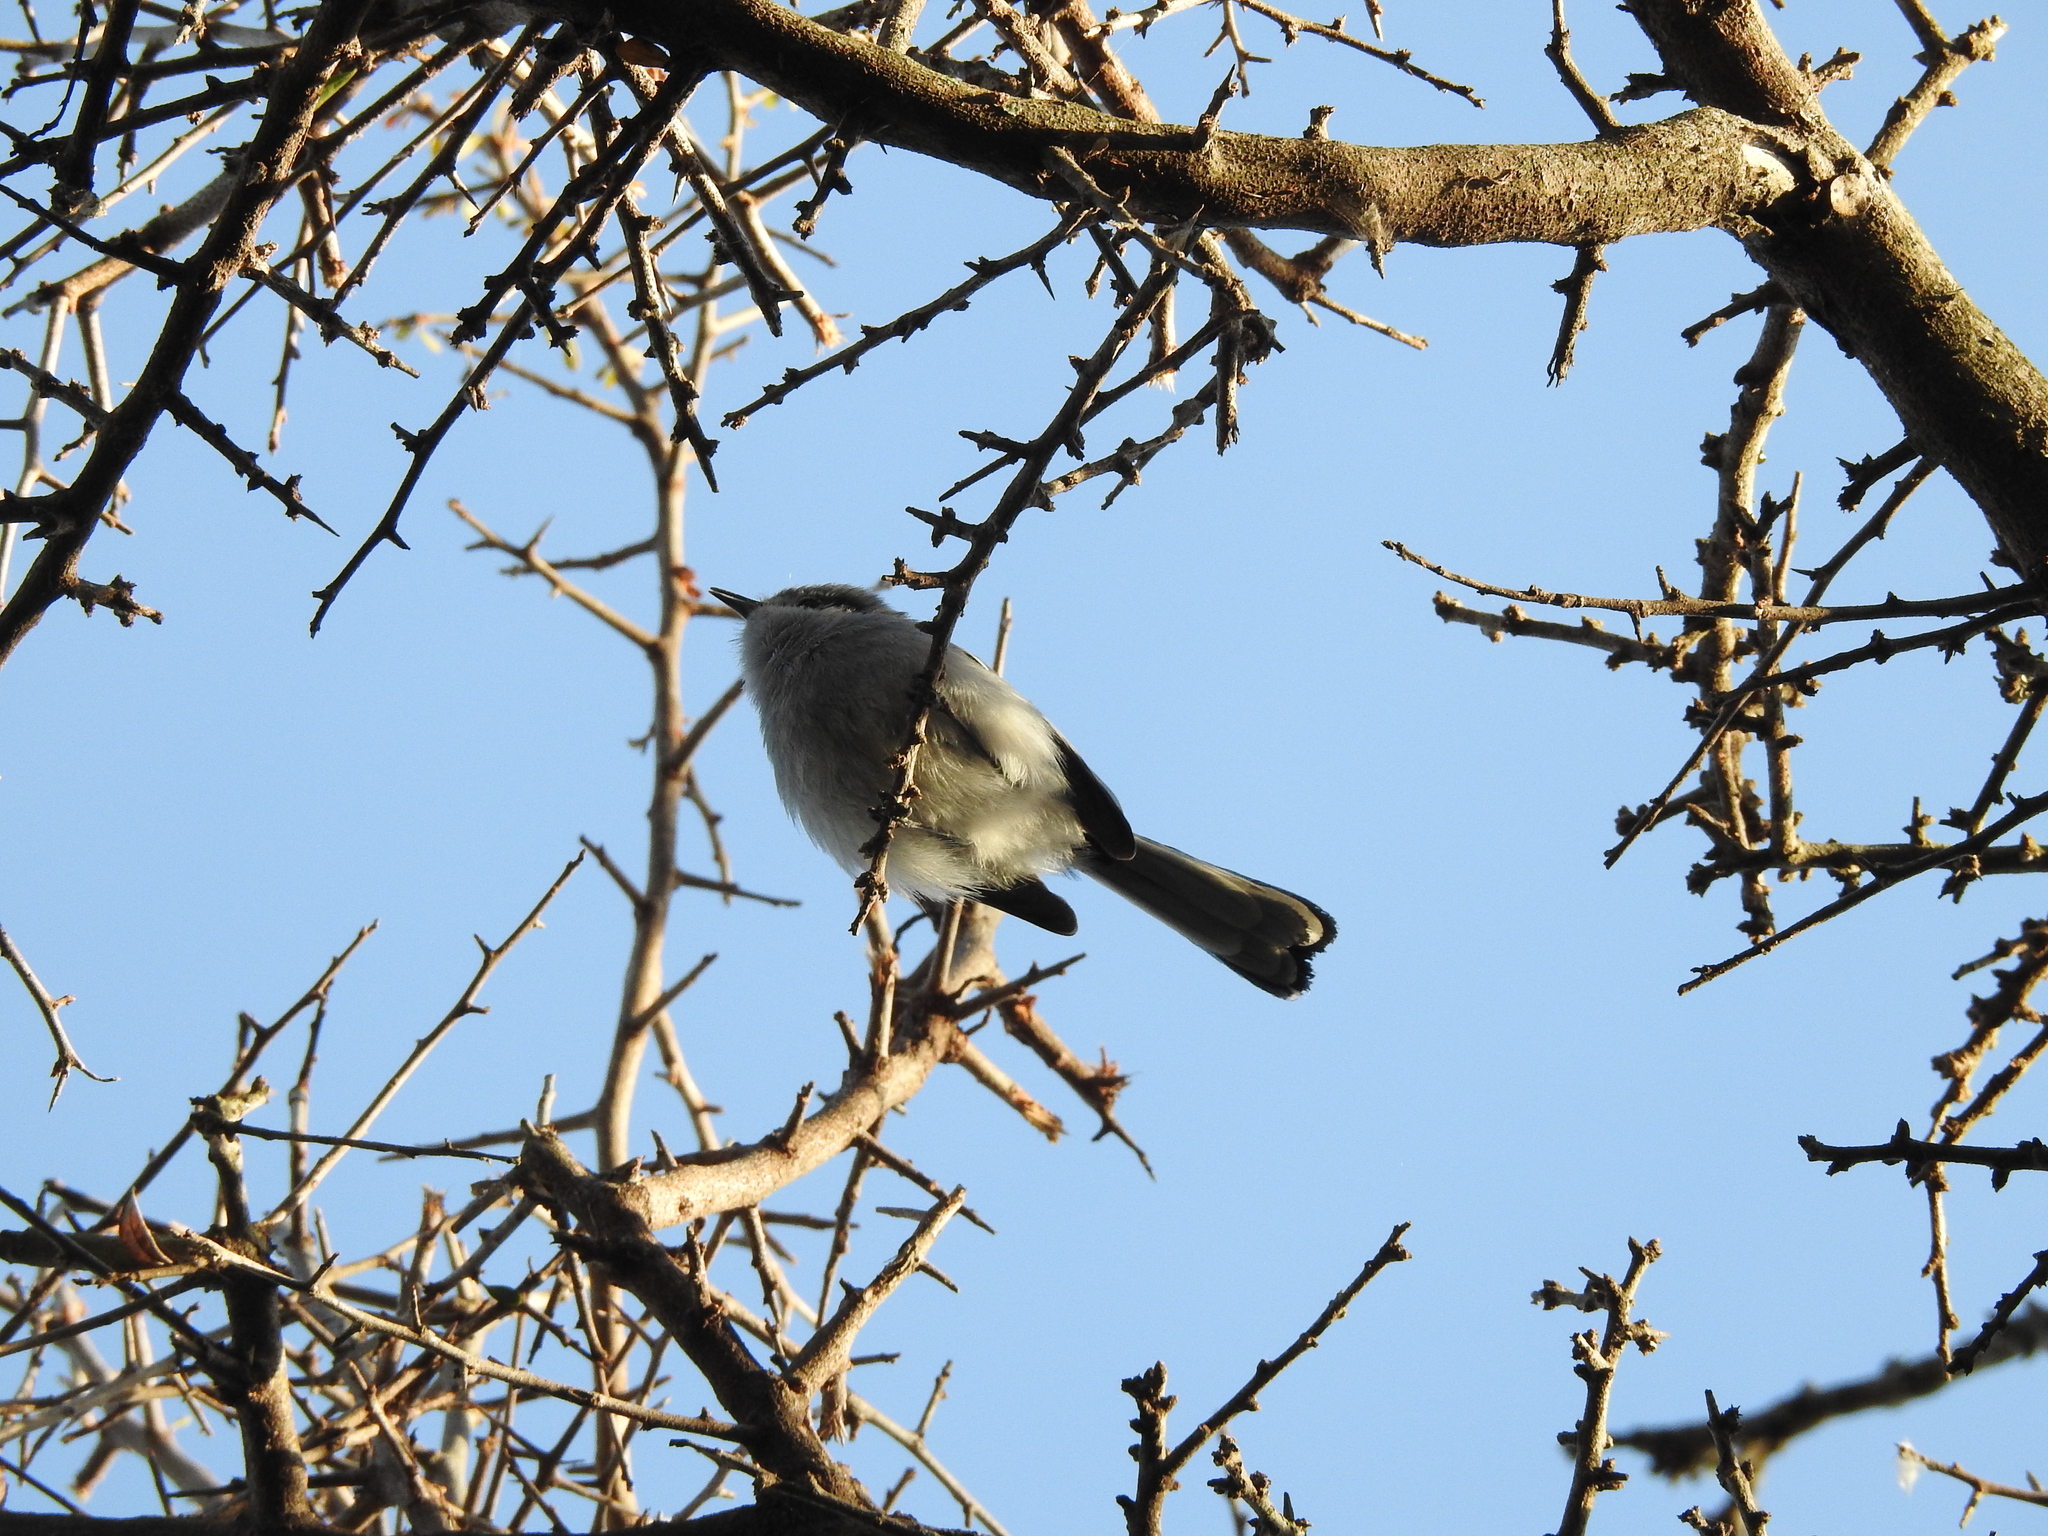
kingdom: Animalia
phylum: Chordata
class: Aves
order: Passeriformes
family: Polioptilidae
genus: Polioptila
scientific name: Polioptila dumicola
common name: Masked gnatcatcher
